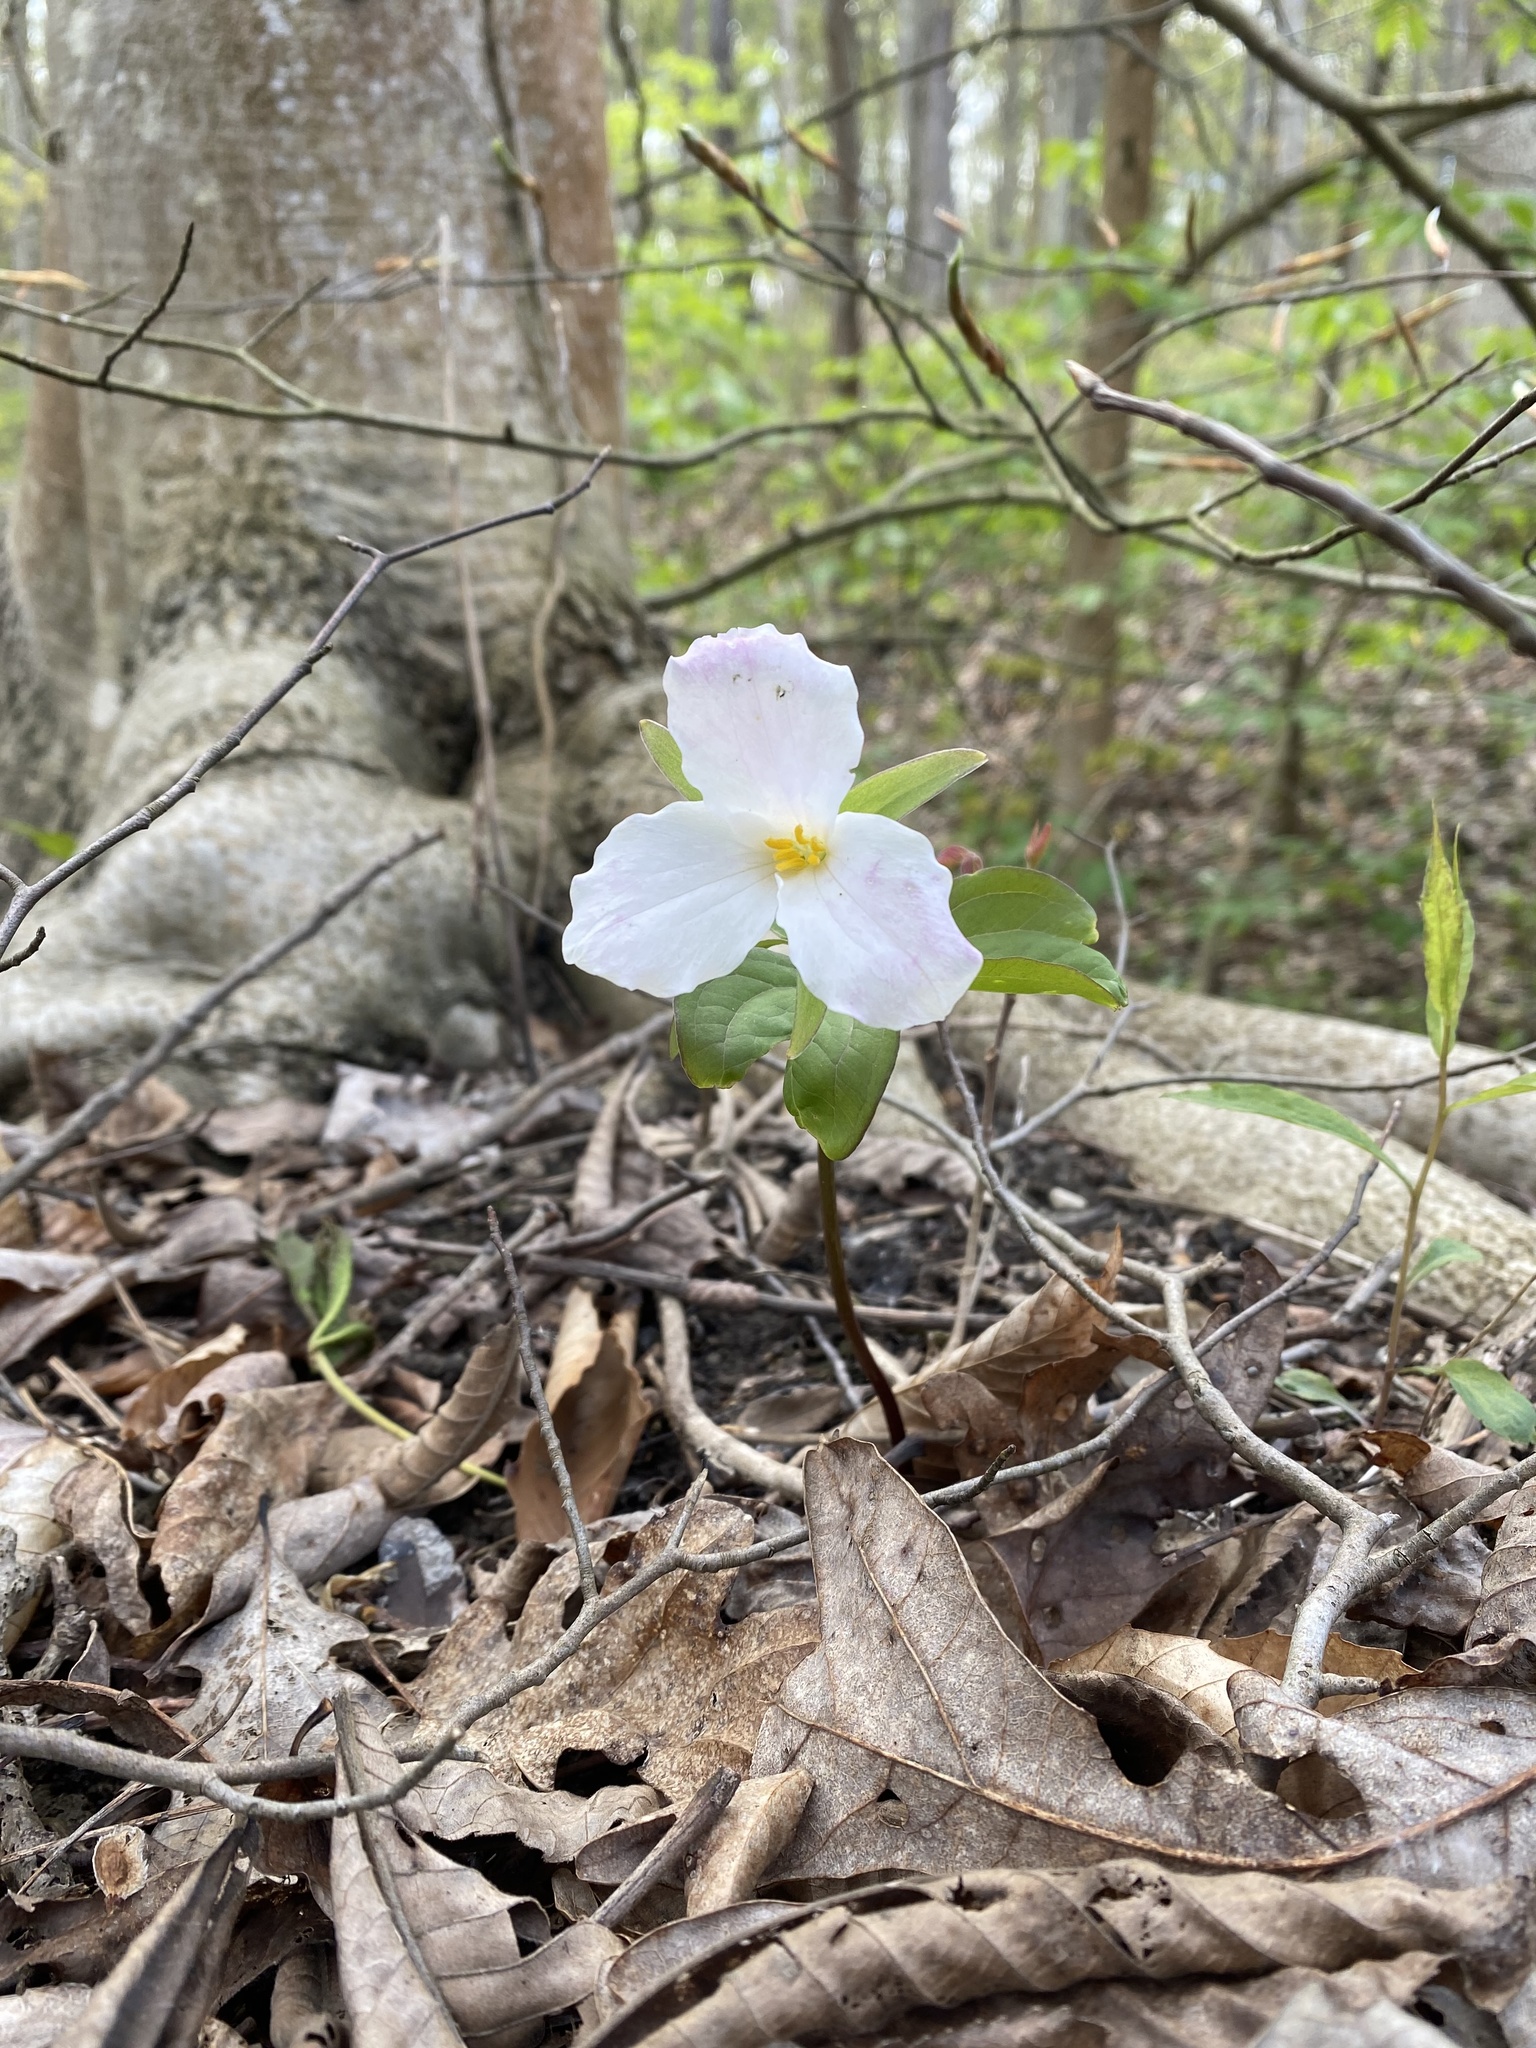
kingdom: Plantae
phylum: Tracheophyta
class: Liliopsida
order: Liliales
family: Melanthiaceae
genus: Trillium
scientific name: Trillium grandiflorum
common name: Great white trillium
